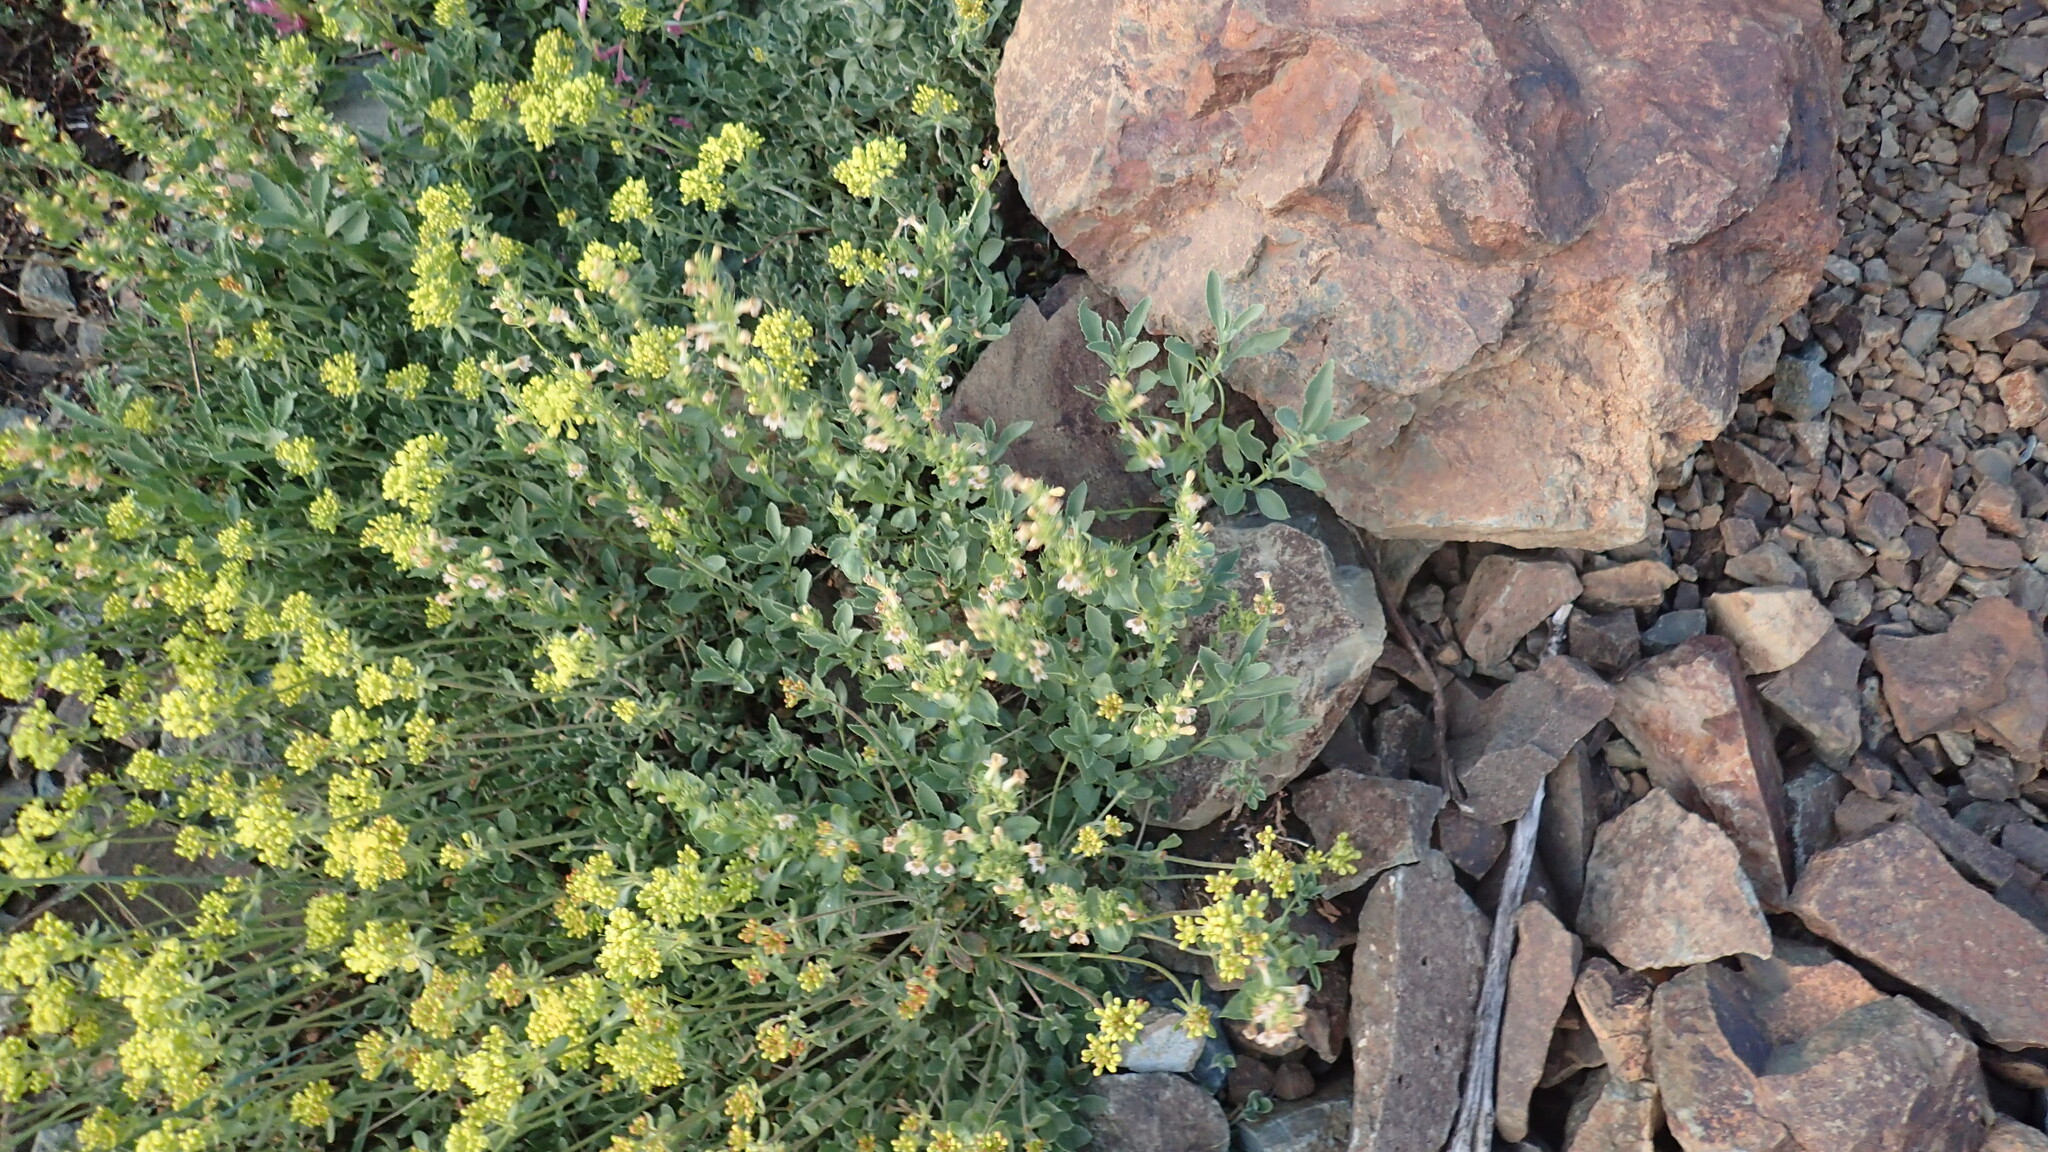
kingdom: Plantae
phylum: Tracheophyta
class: Magnoliopsida
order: Lamiales
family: Plantaginaceae
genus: Penstemon
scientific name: Penstemon deustus
